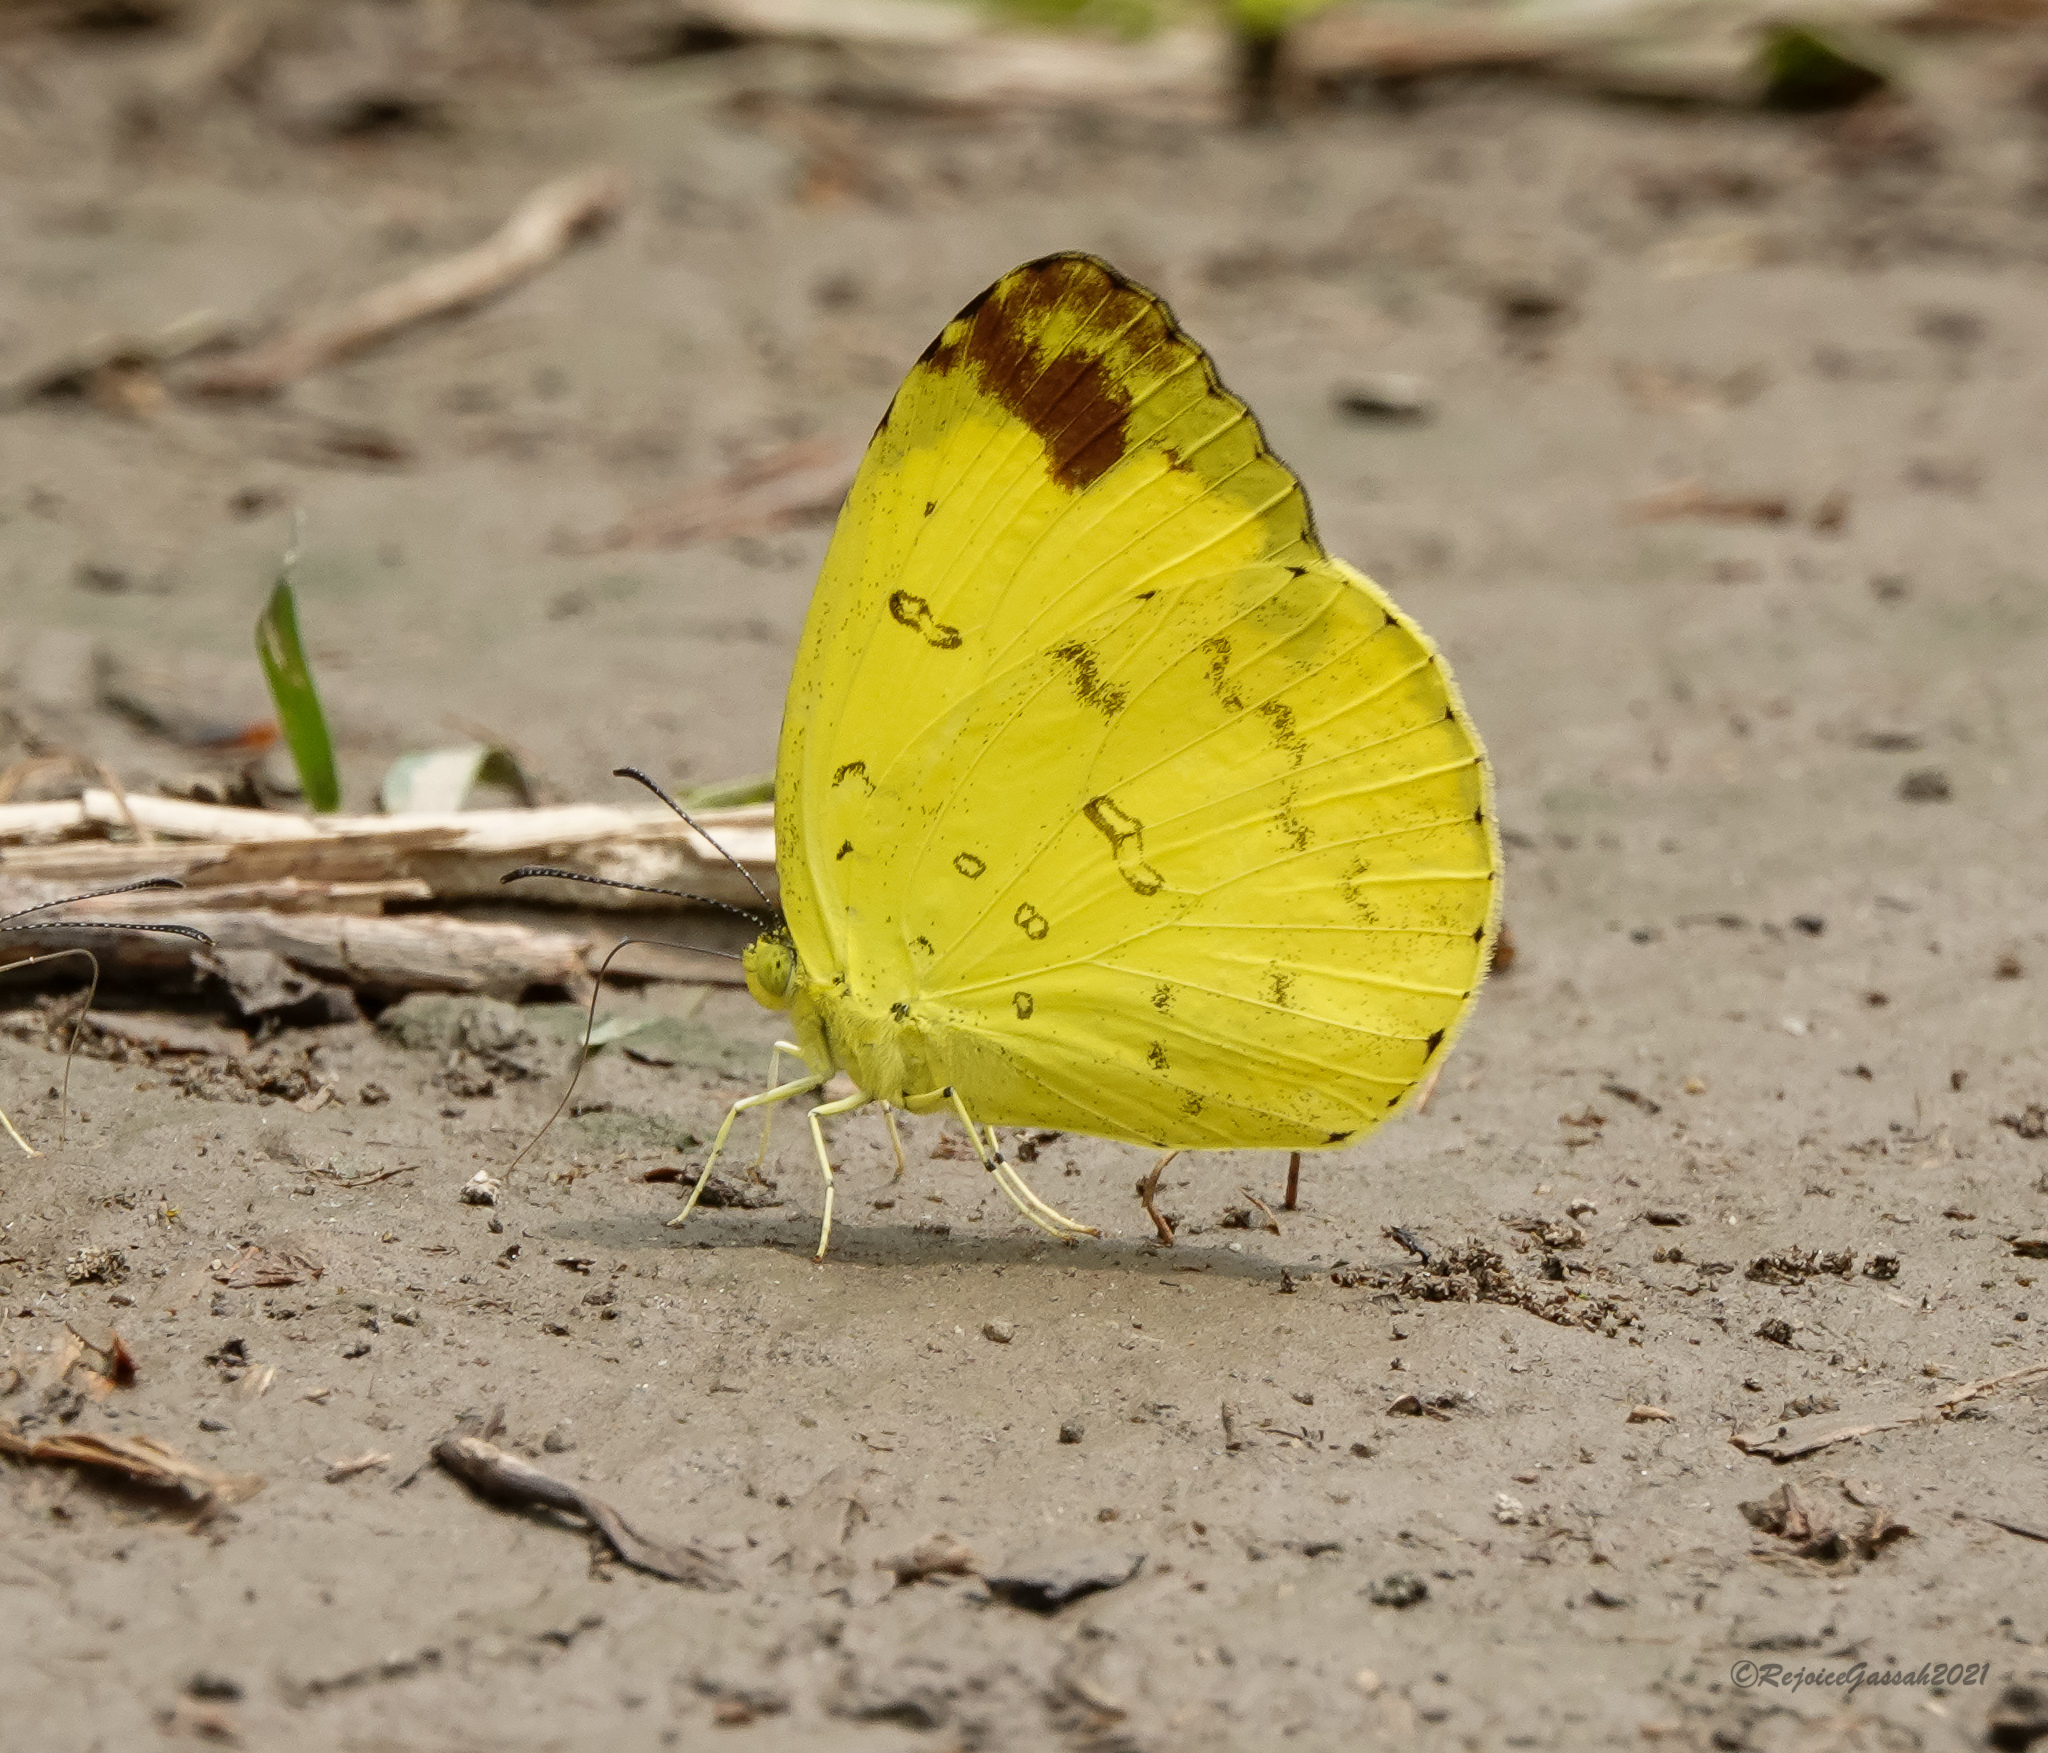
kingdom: Animalia
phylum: Arthropoda
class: Insecta
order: Lepidoptera
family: Pieridae
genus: Eurema
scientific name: Eurema blanda
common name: Three-spot grass yellow
